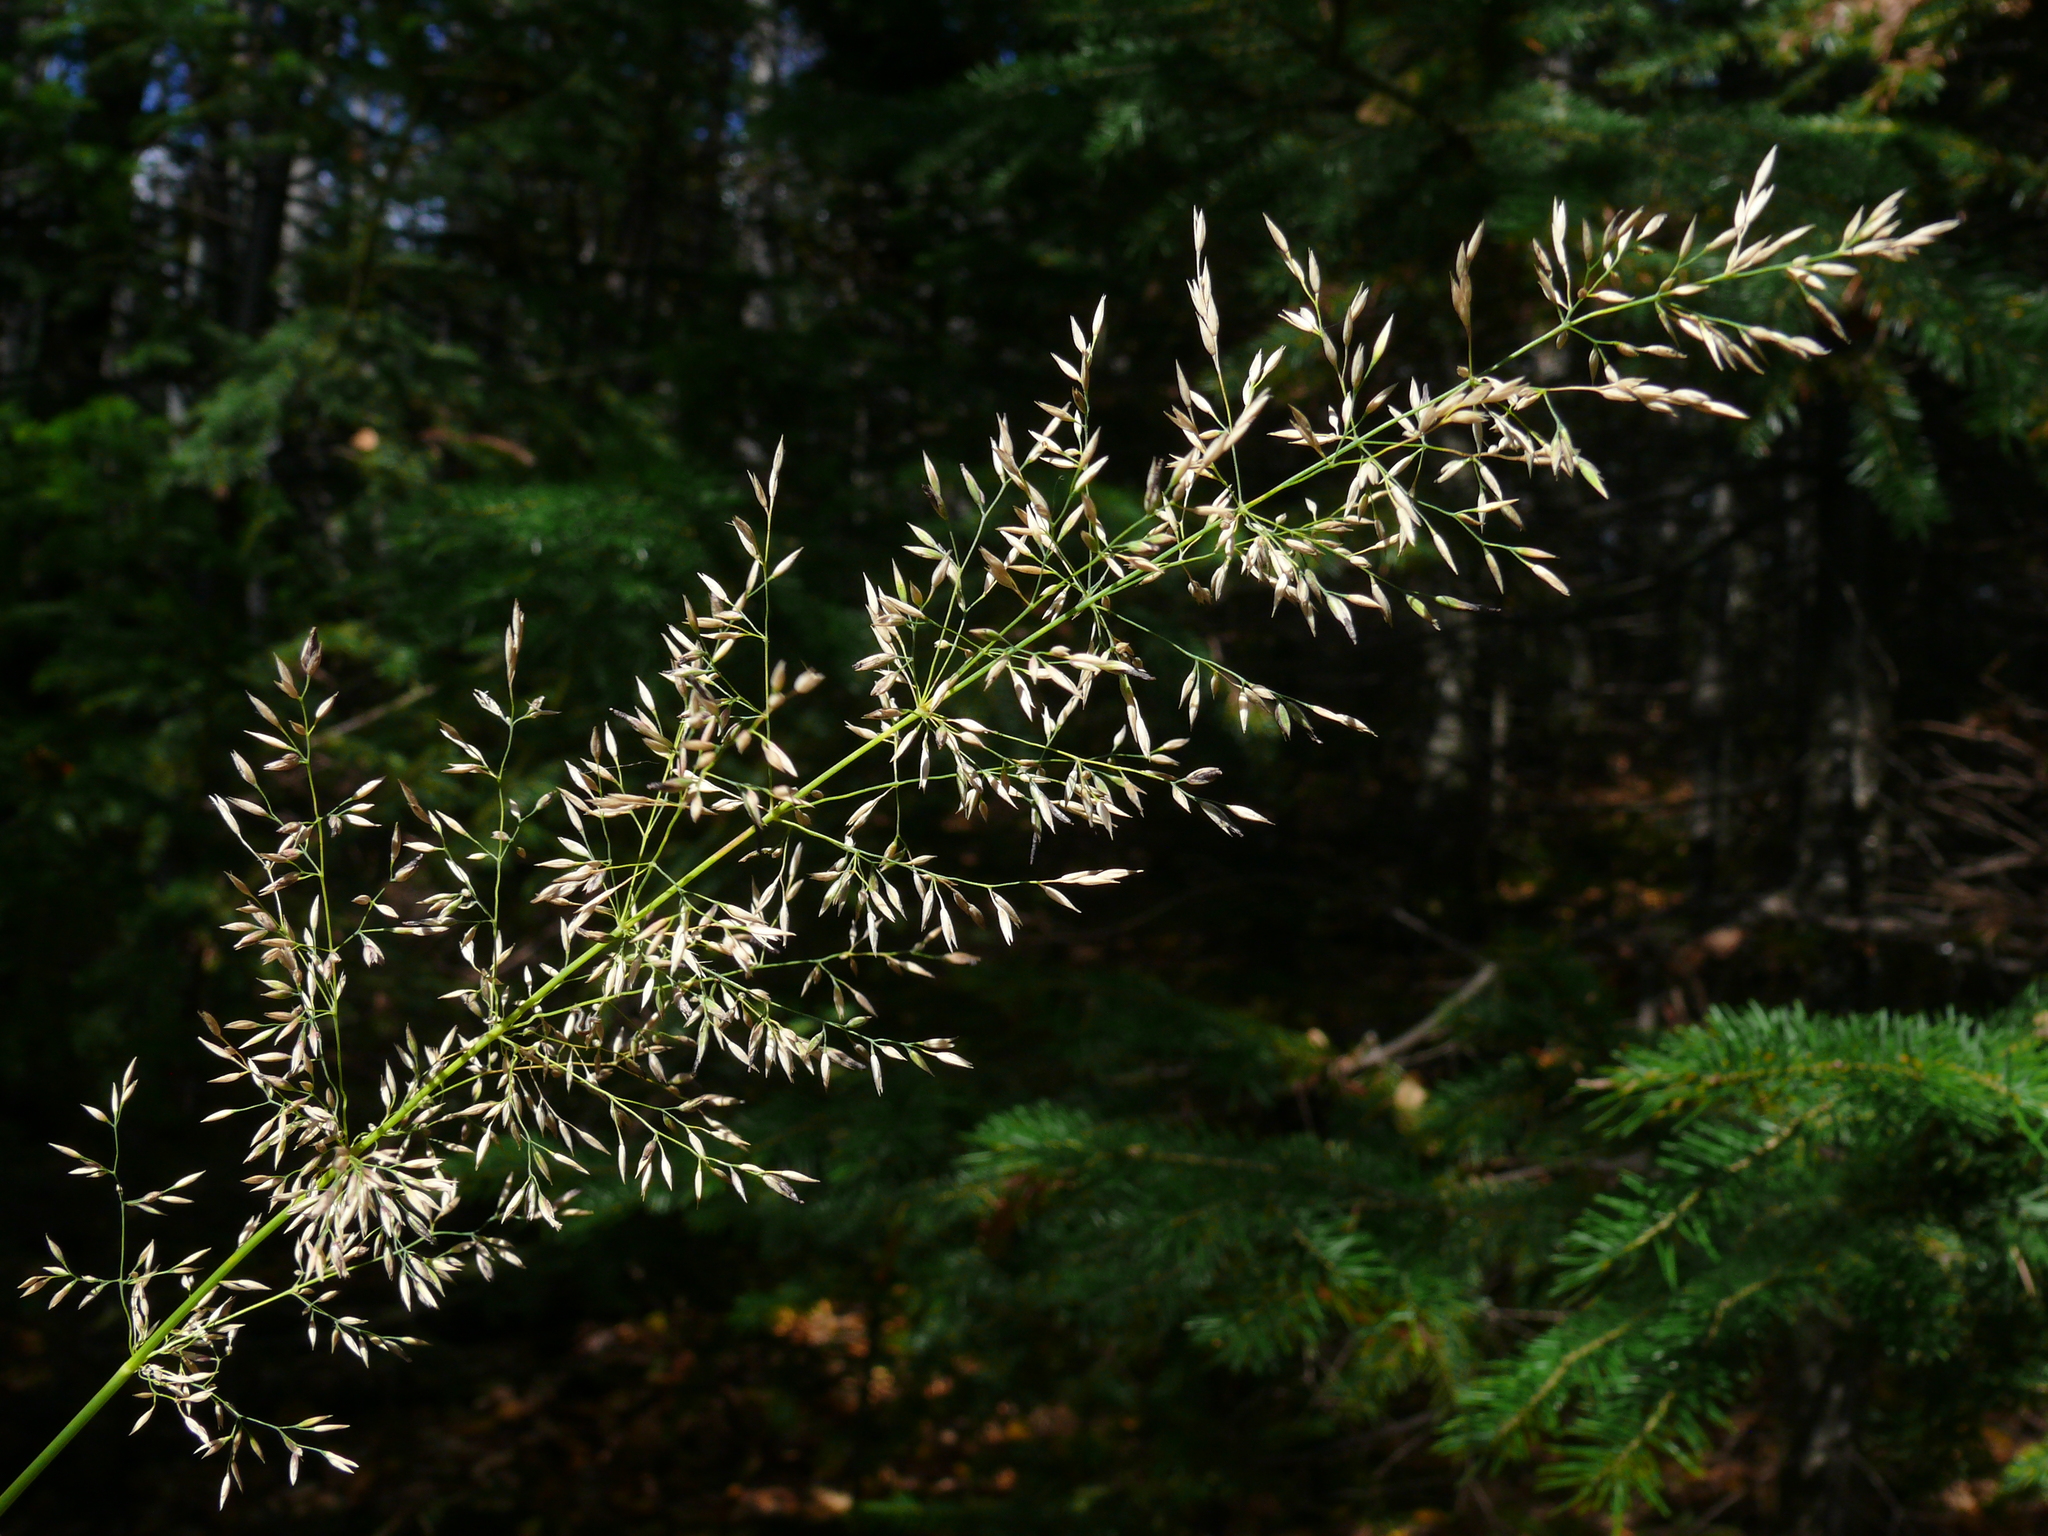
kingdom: Plantae
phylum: Tracheophyta
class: Liliopsida
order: Poales
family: Poaceae
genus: Calamagrostis
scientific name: Calamagrostis obtusata
